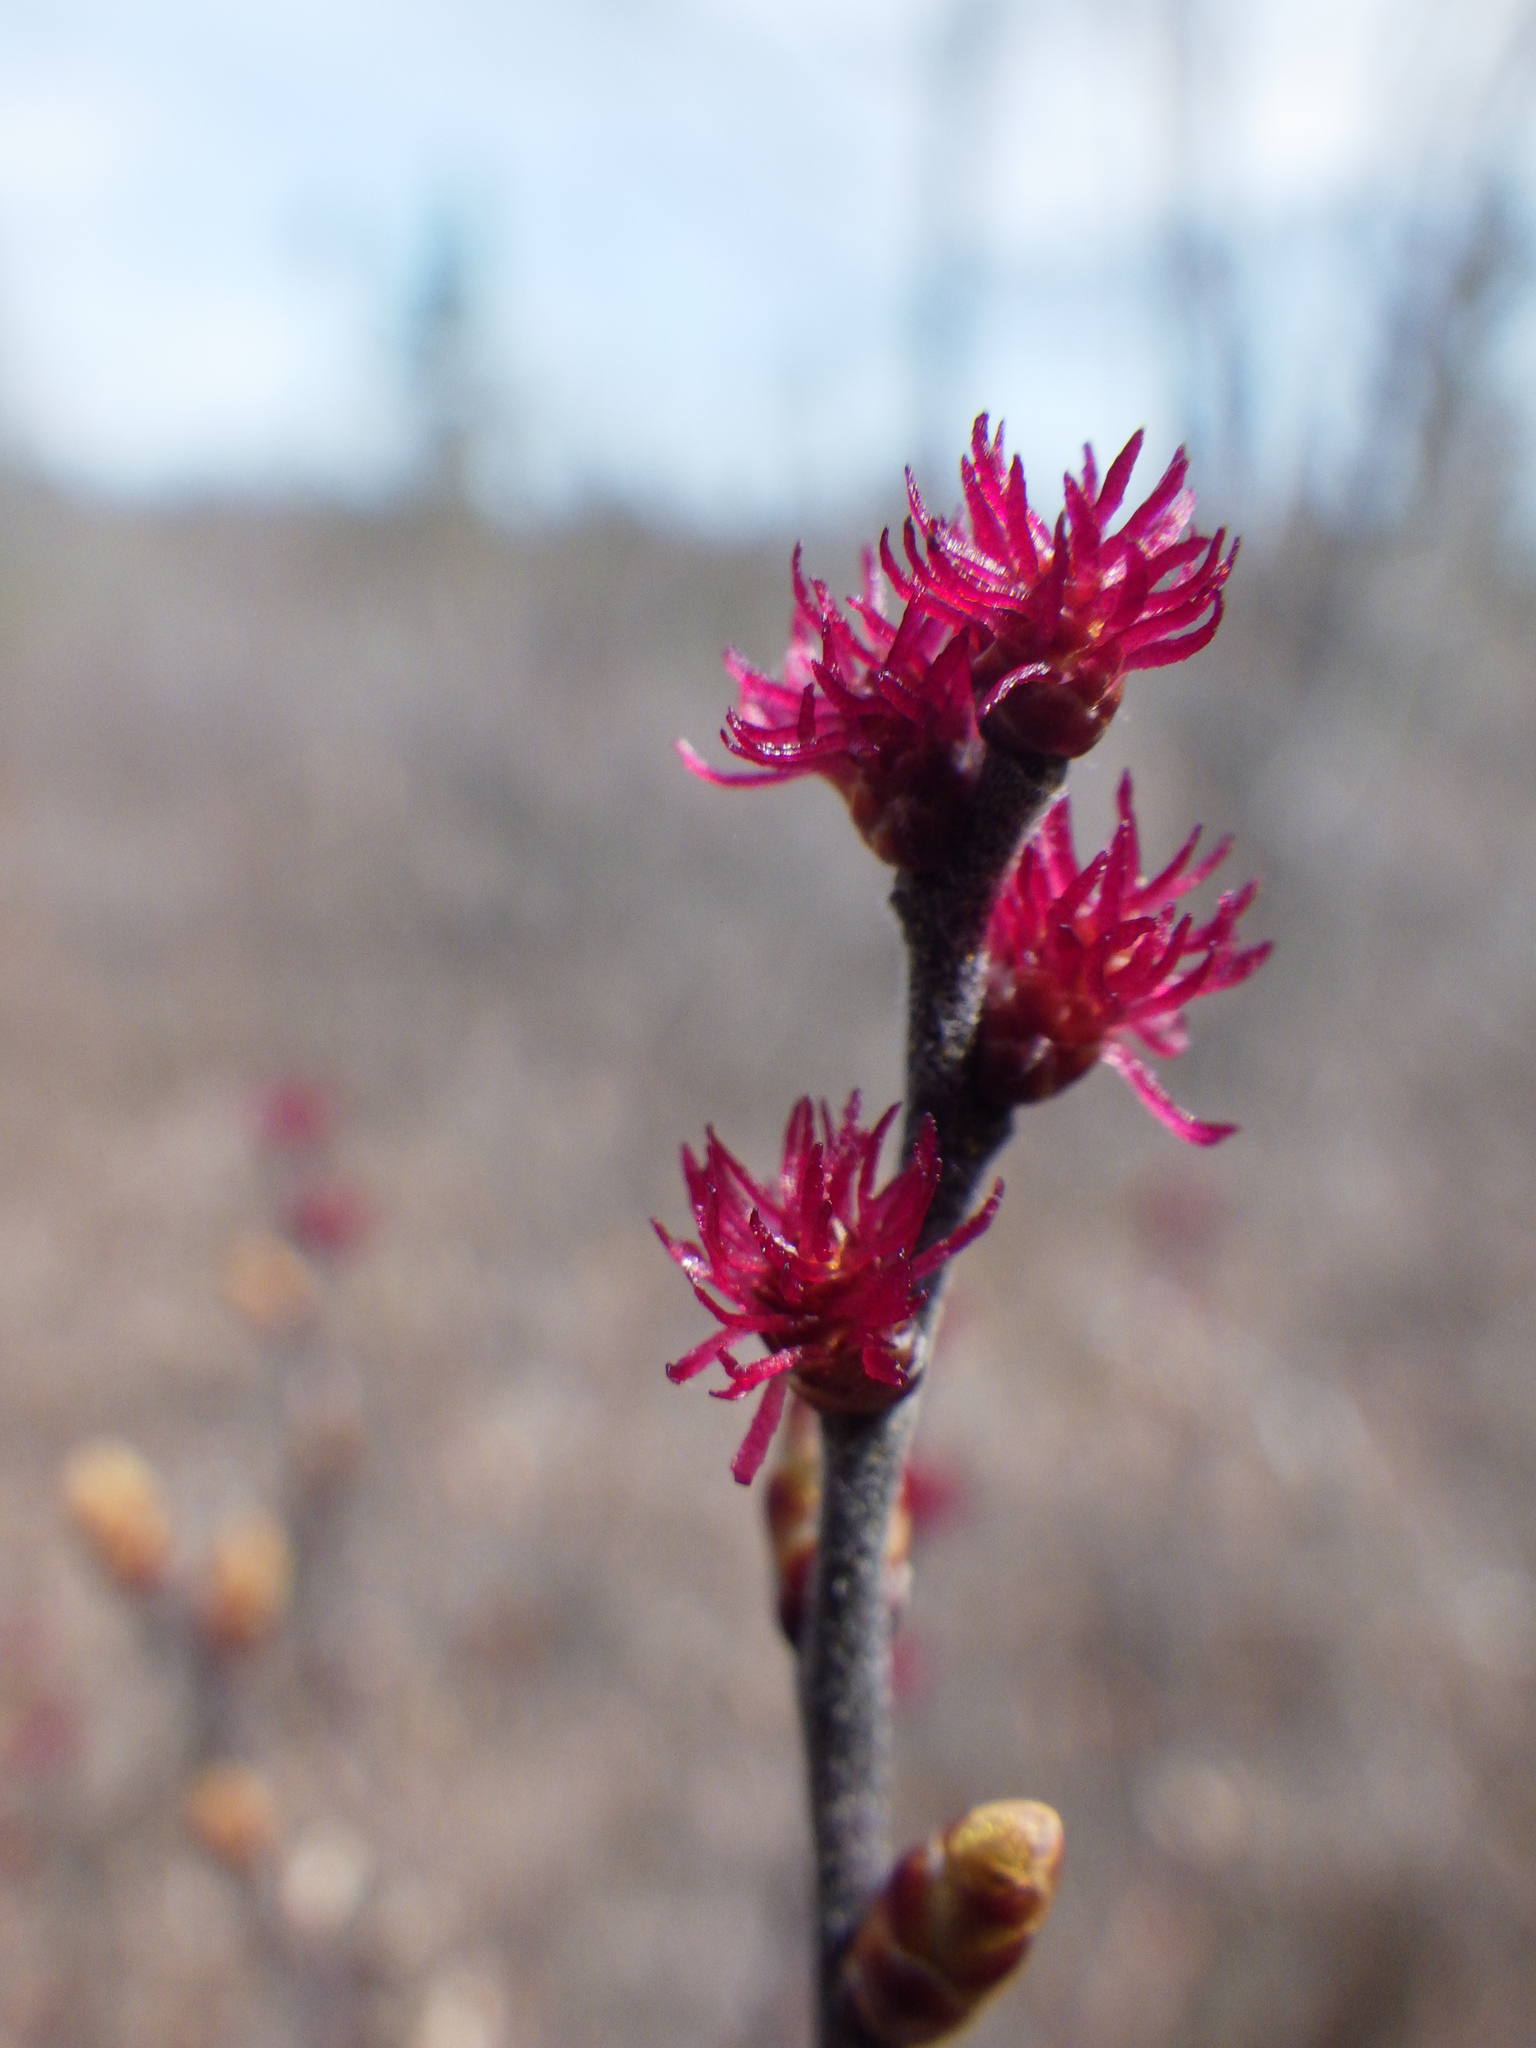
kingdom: Plantae
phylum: Tracheophyta
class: Magnoliopsida
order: Fagales
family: Myricaceae
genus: Myrica
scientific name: Myrica gale
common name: Sweet gale
